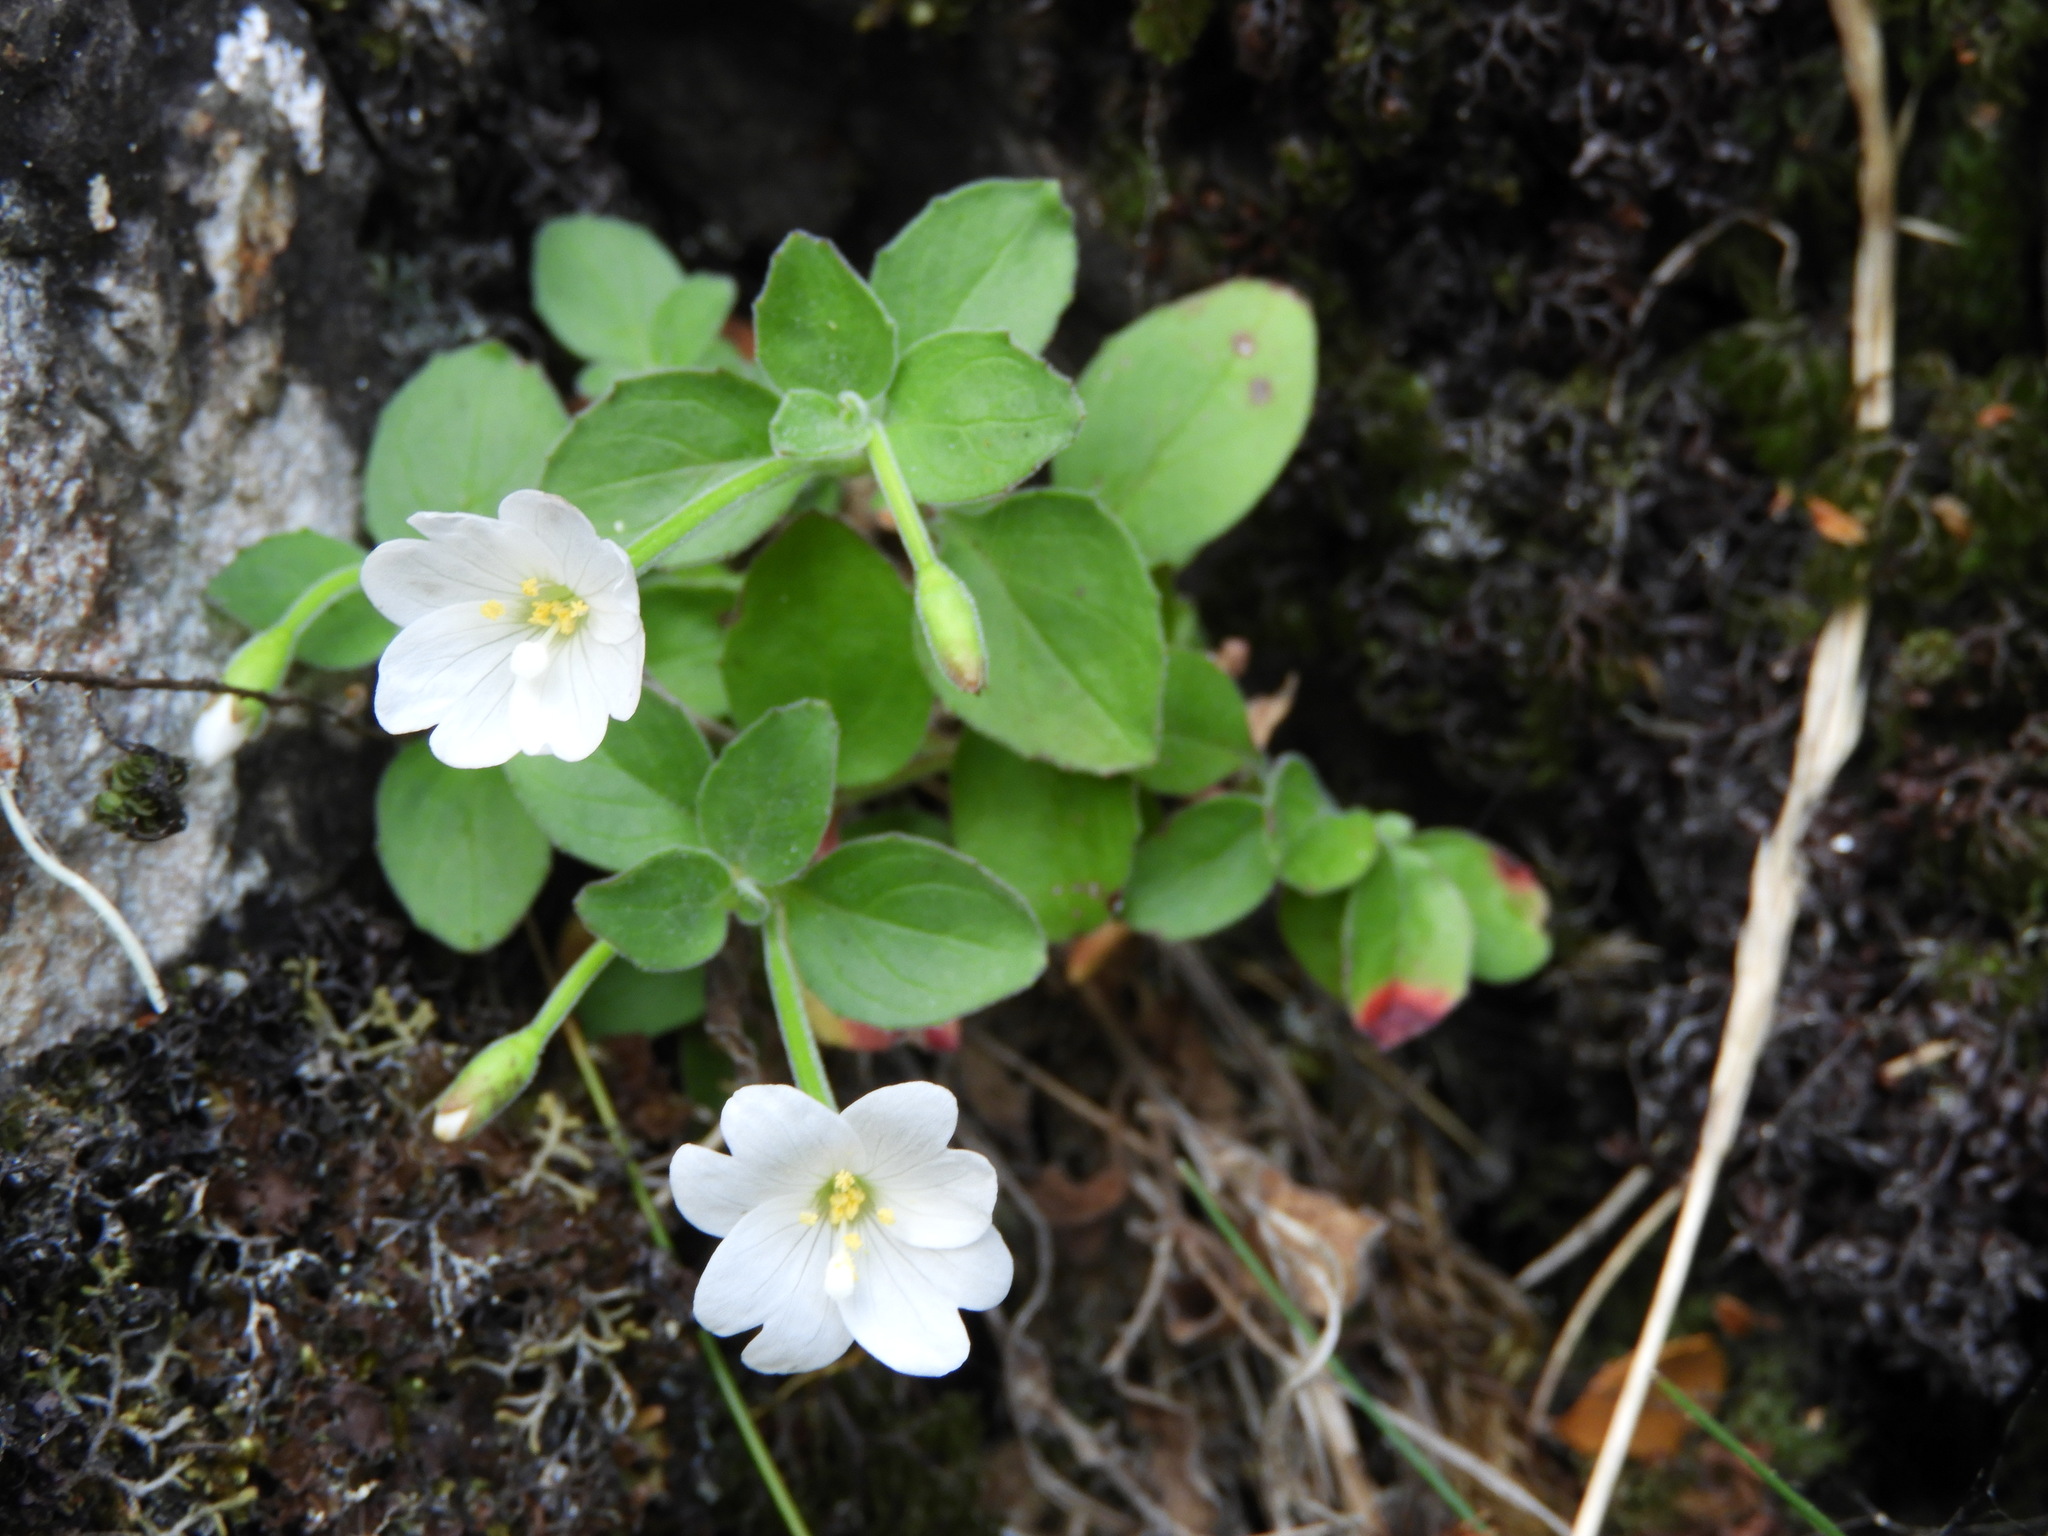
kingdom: Plantae
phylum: Tracheophyta
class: Magnoliopsida
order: Myrtales
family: Onagraceae
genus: Epilobium
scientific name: Epilobium astonii
